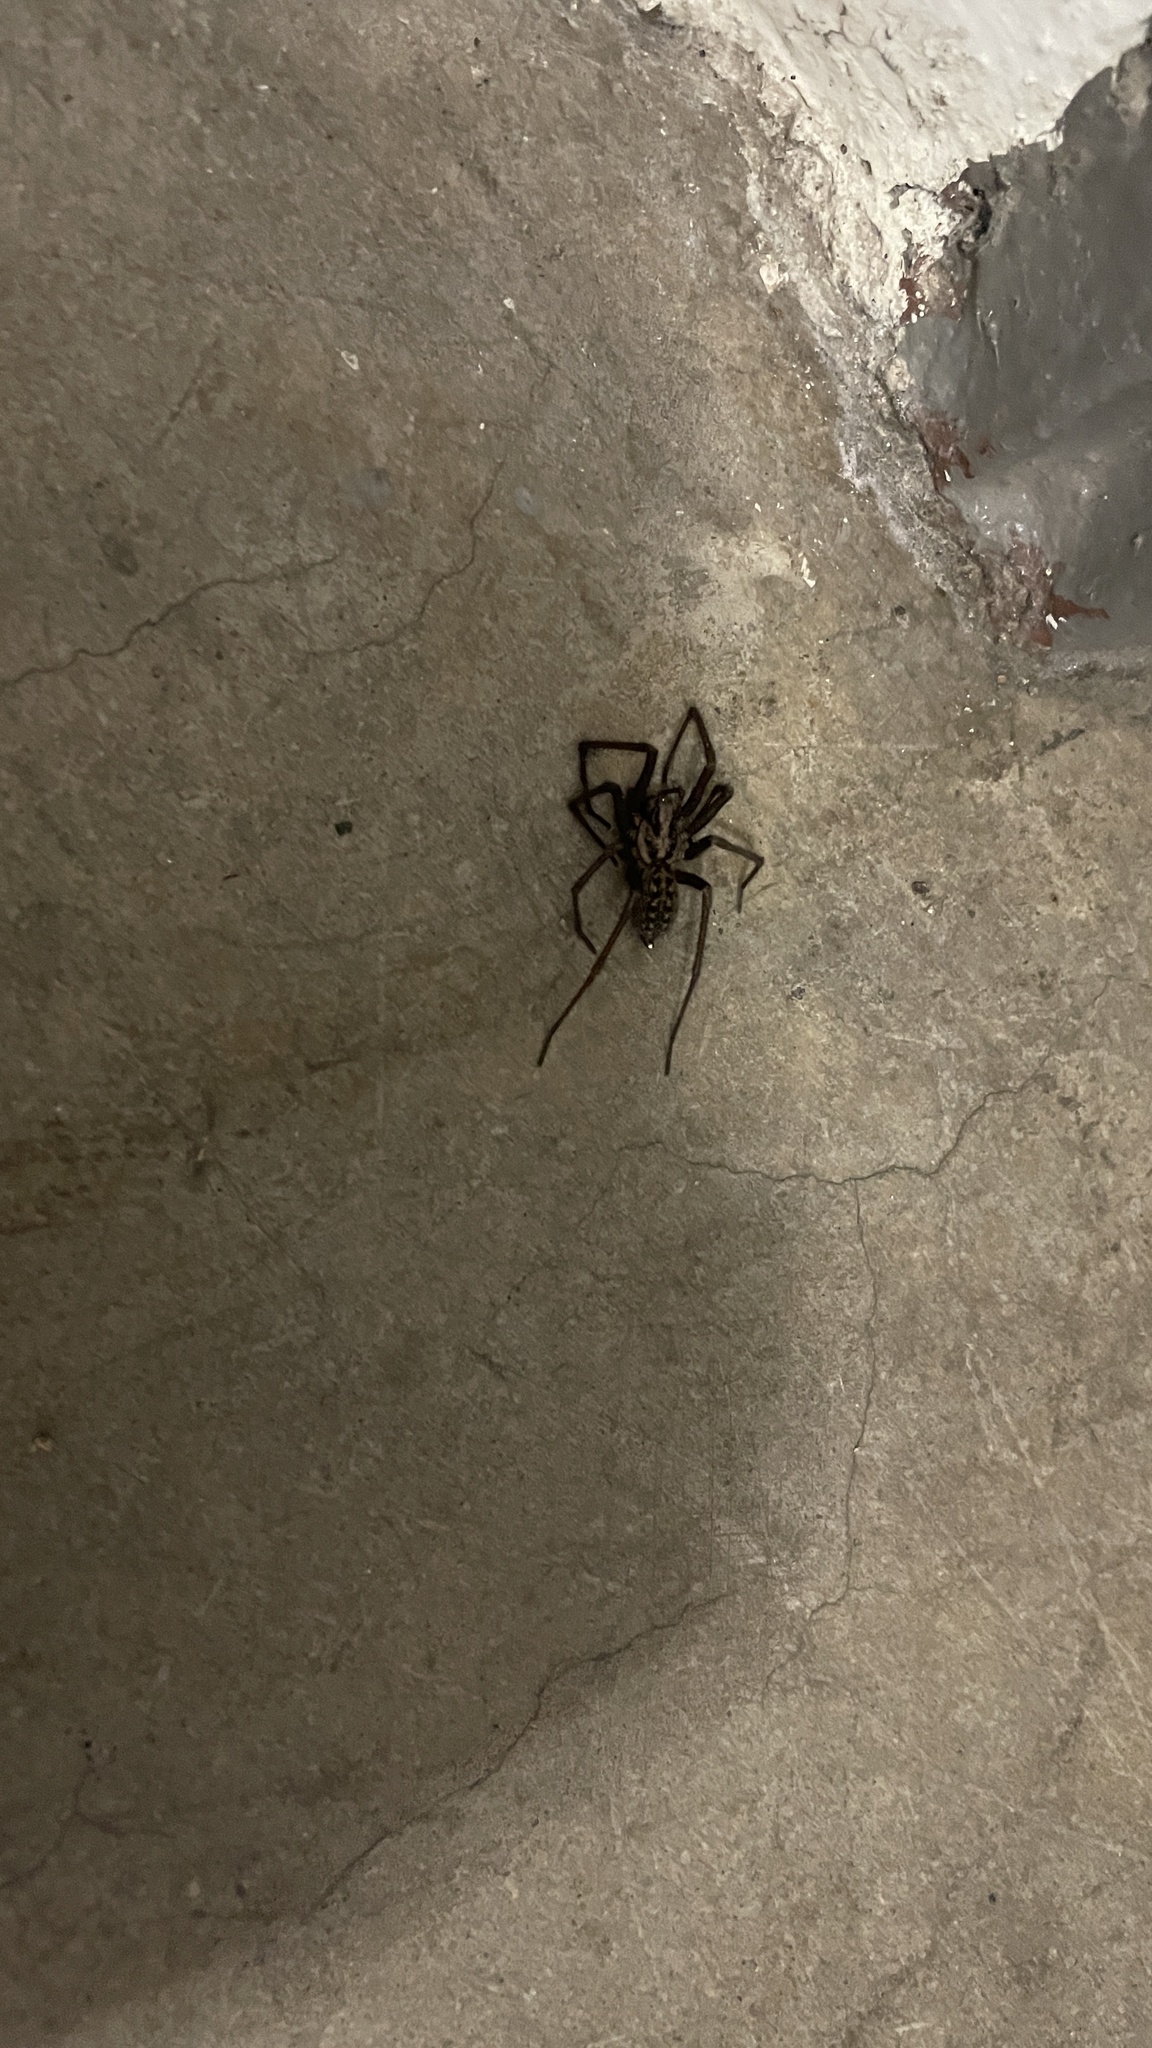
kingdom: Animalia
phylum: Arthropoda
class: Arachnida
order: Araneae
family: Agelenidae
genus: Eratigena
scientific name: Eratigena duellica
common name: Giant house spider
